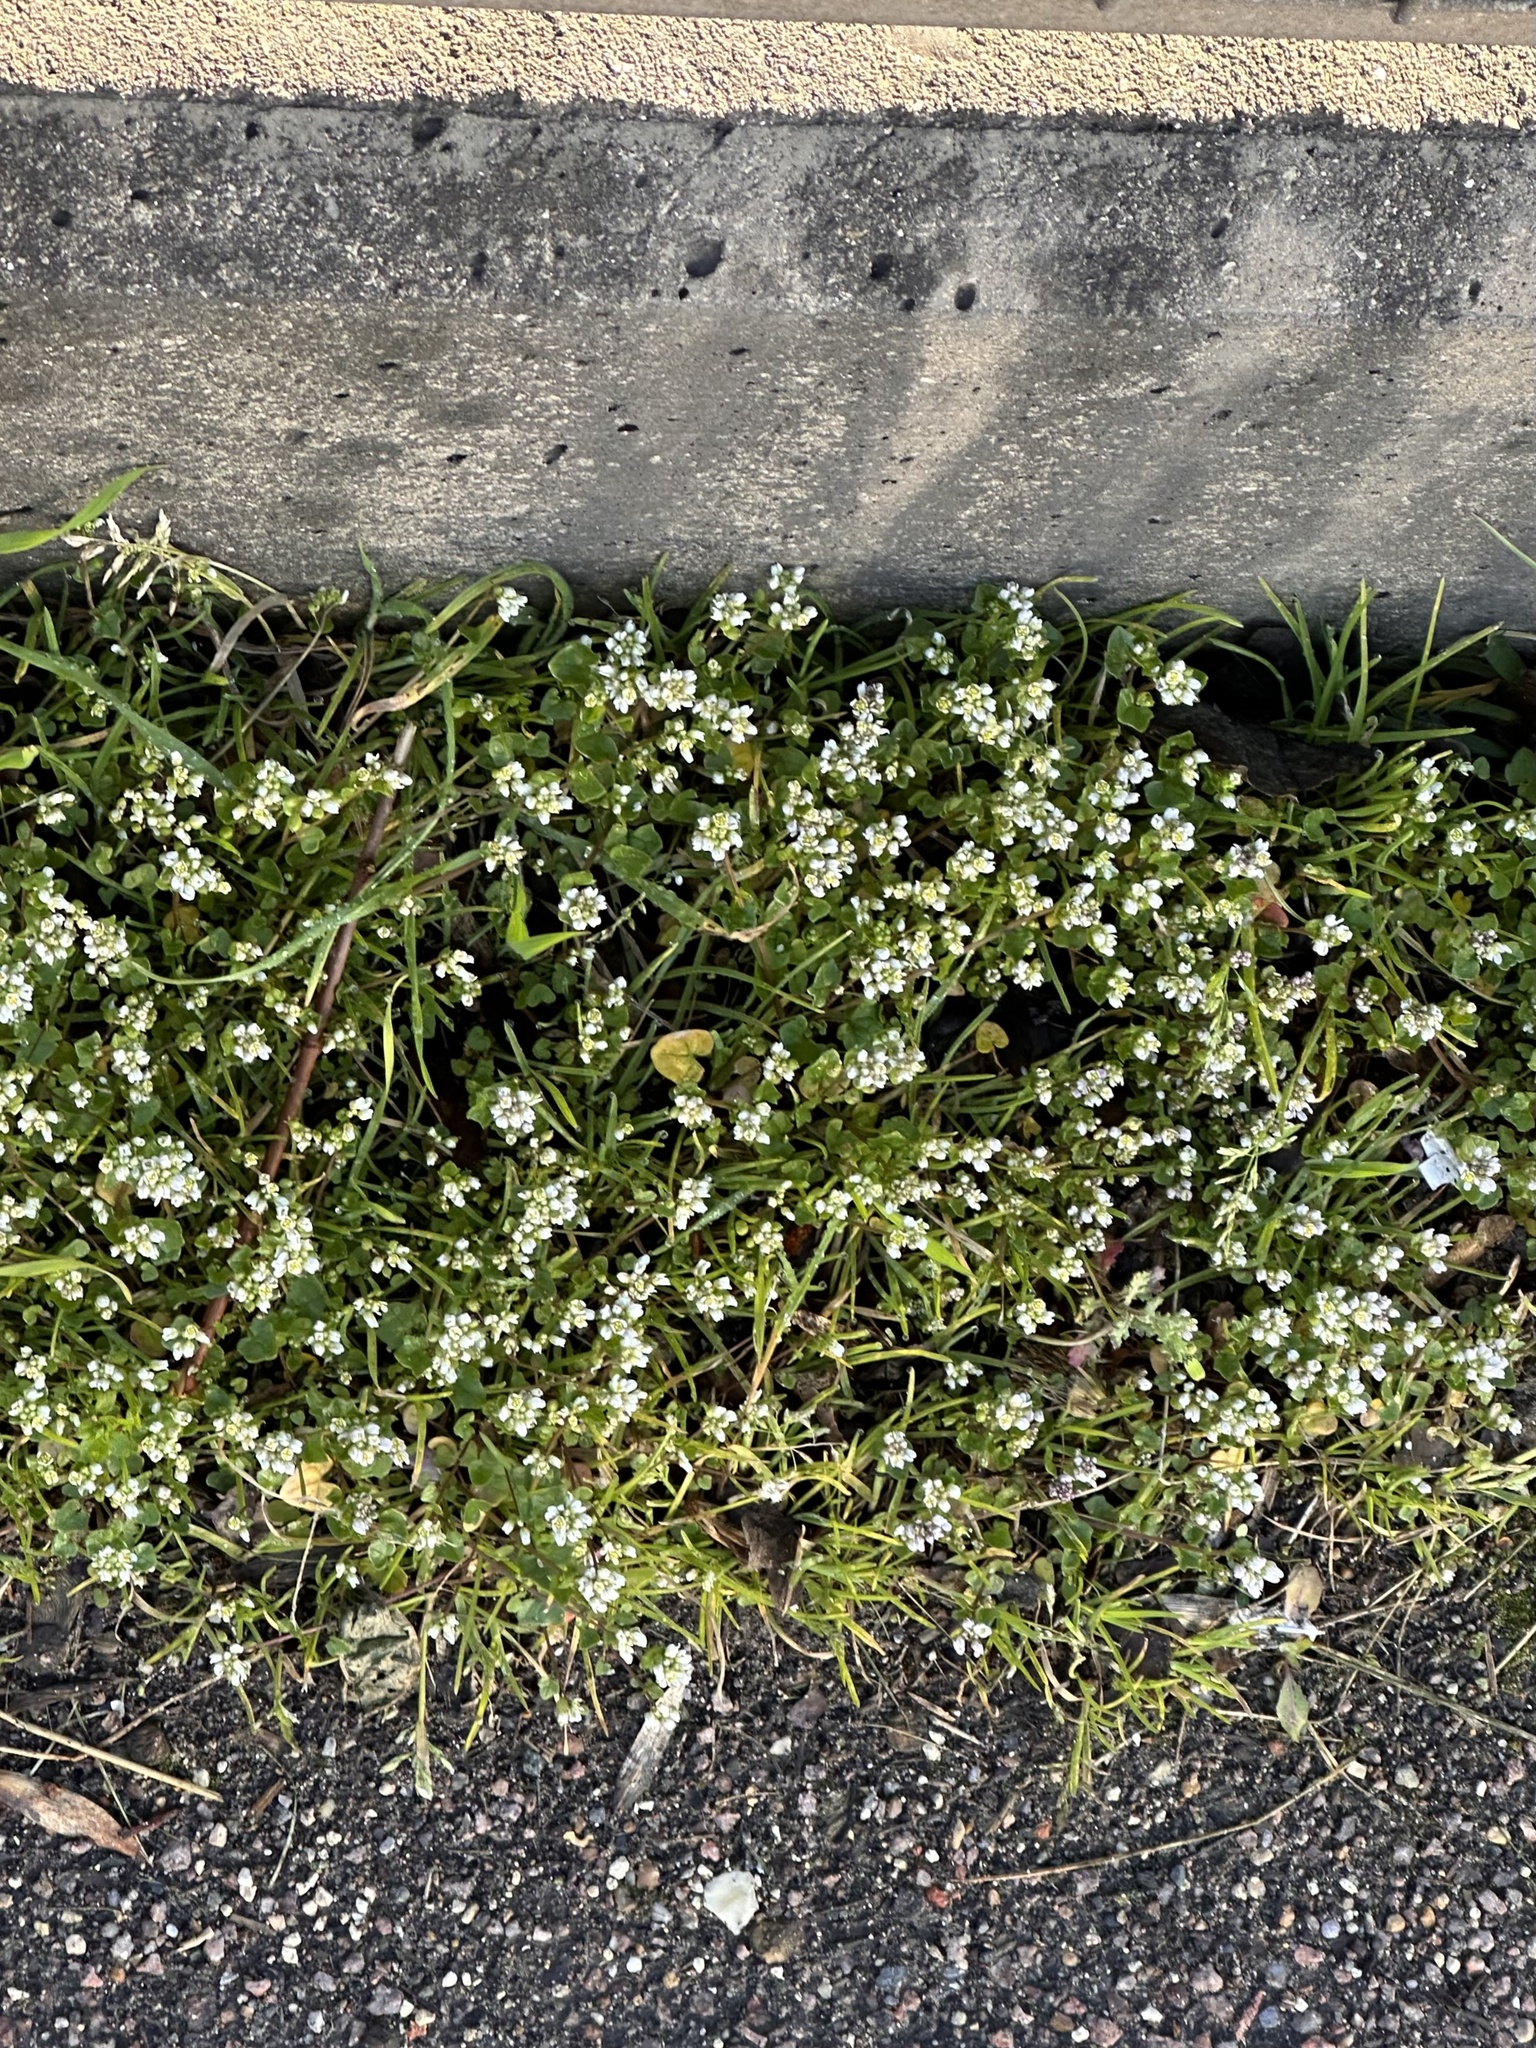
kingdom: Plantae
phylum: Tracheophyta
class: Magnoliopsida
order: Brassicales
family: Brassicaceae
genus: Cochlearia
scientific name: Cochlearia danica
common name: Early scurvygrass
